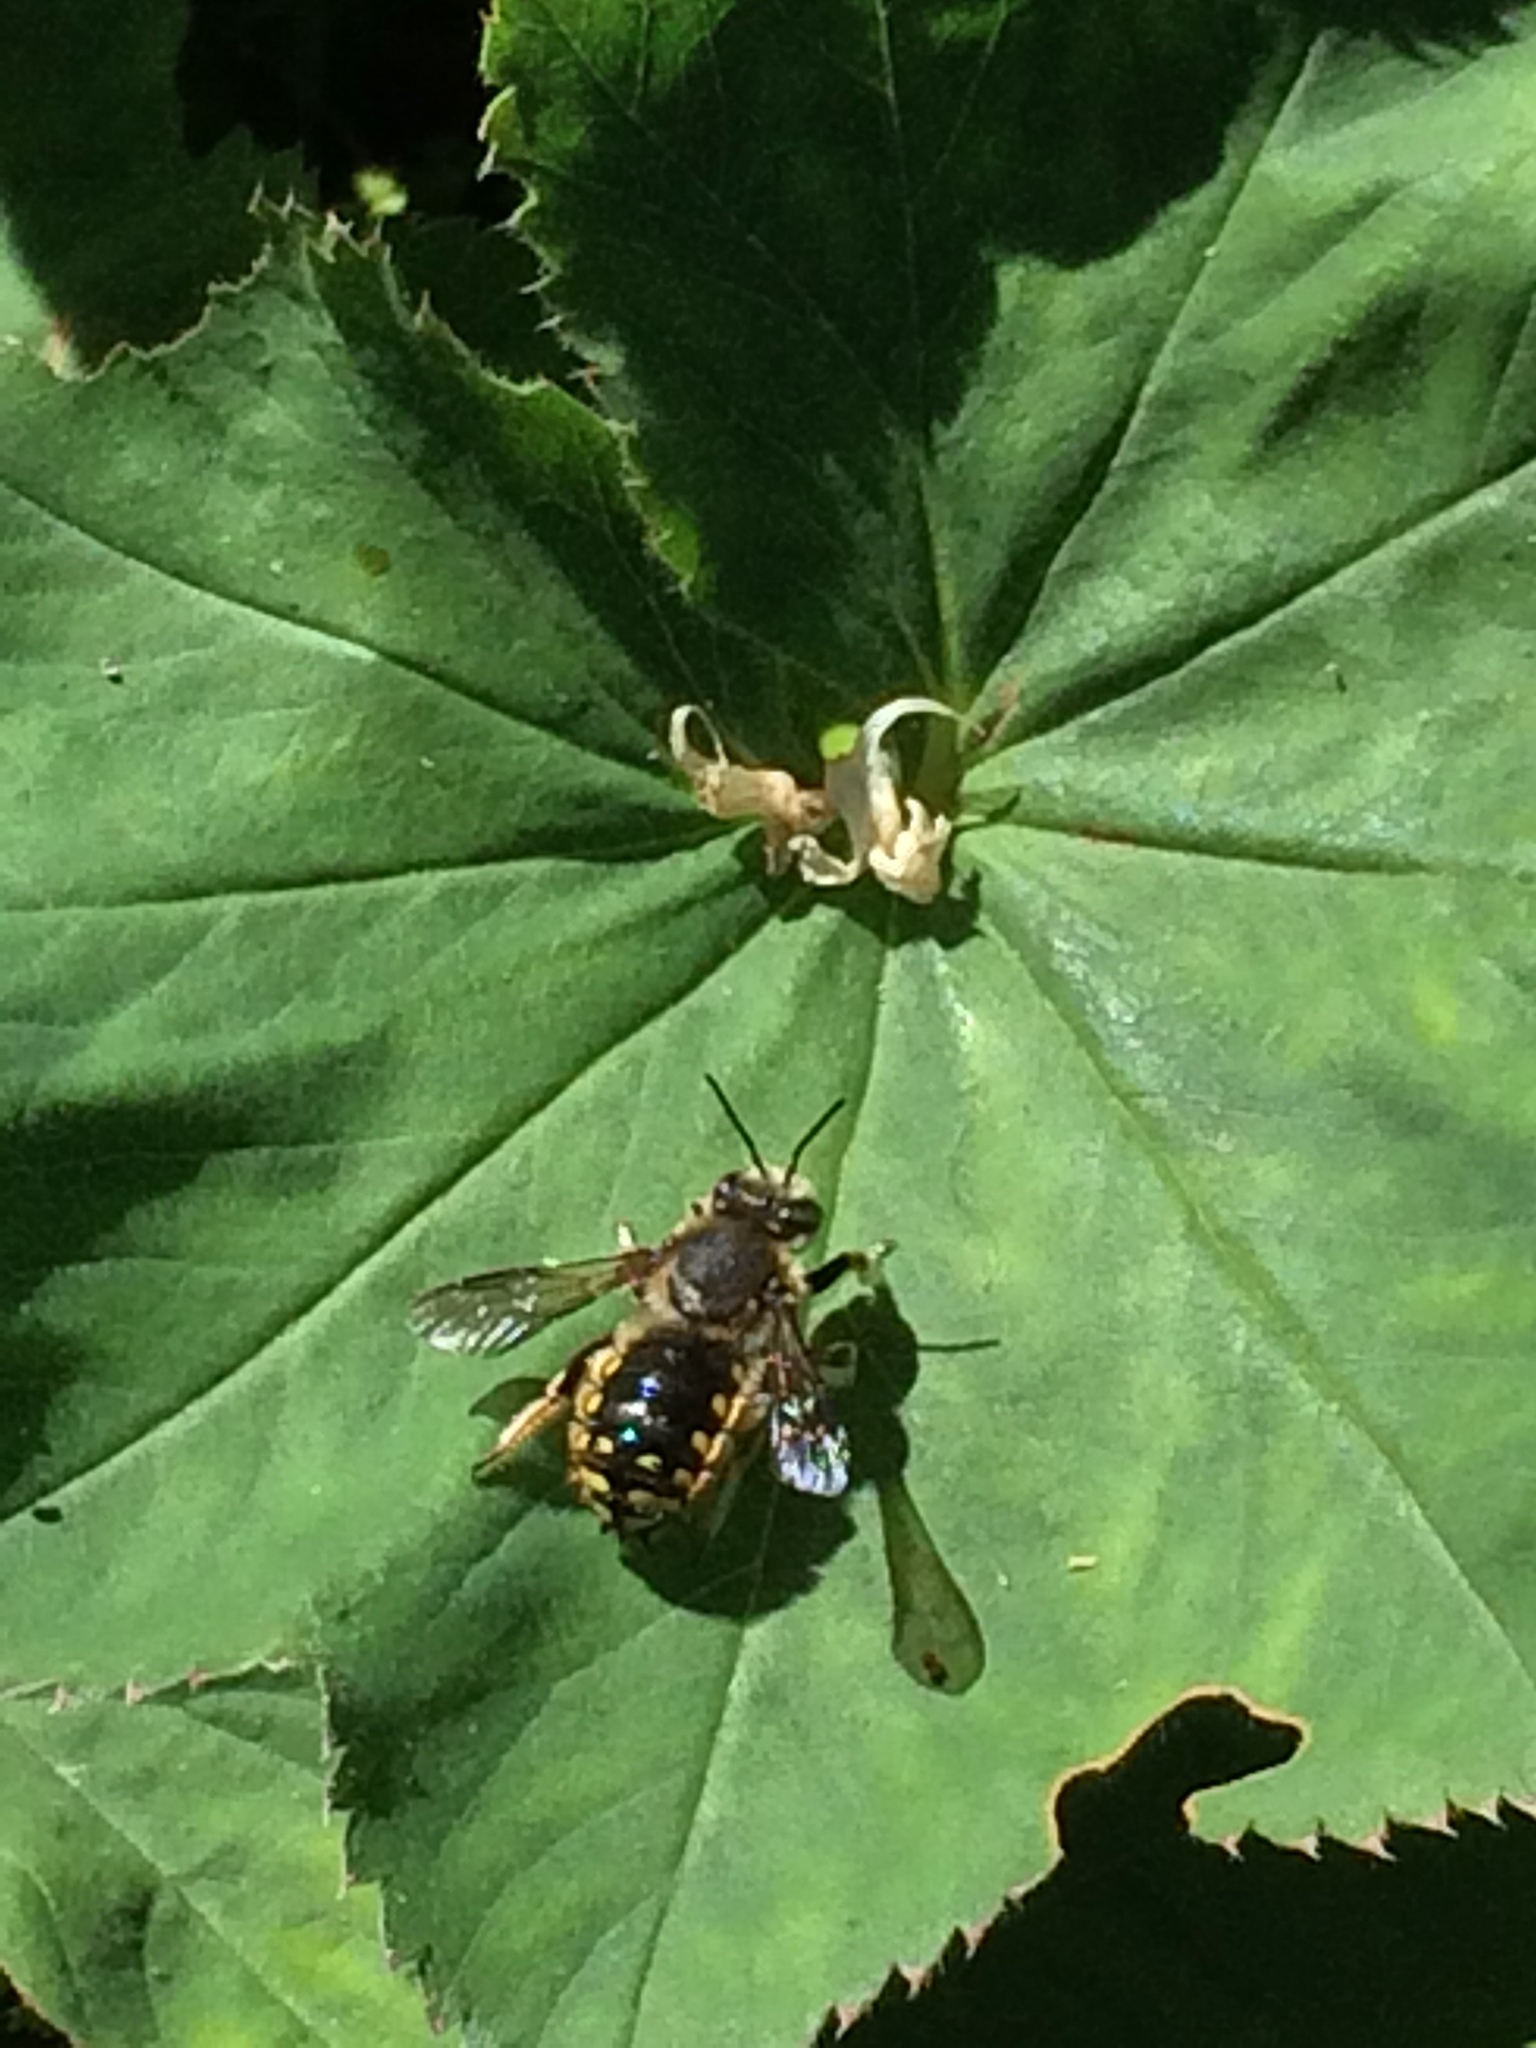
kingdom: Animalia
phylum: Arthropoda
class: Insecta
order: Hymenoptera
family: Megachilidae
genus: Anthidium
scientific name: Anthidium manicatum
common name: Wool carder bee
